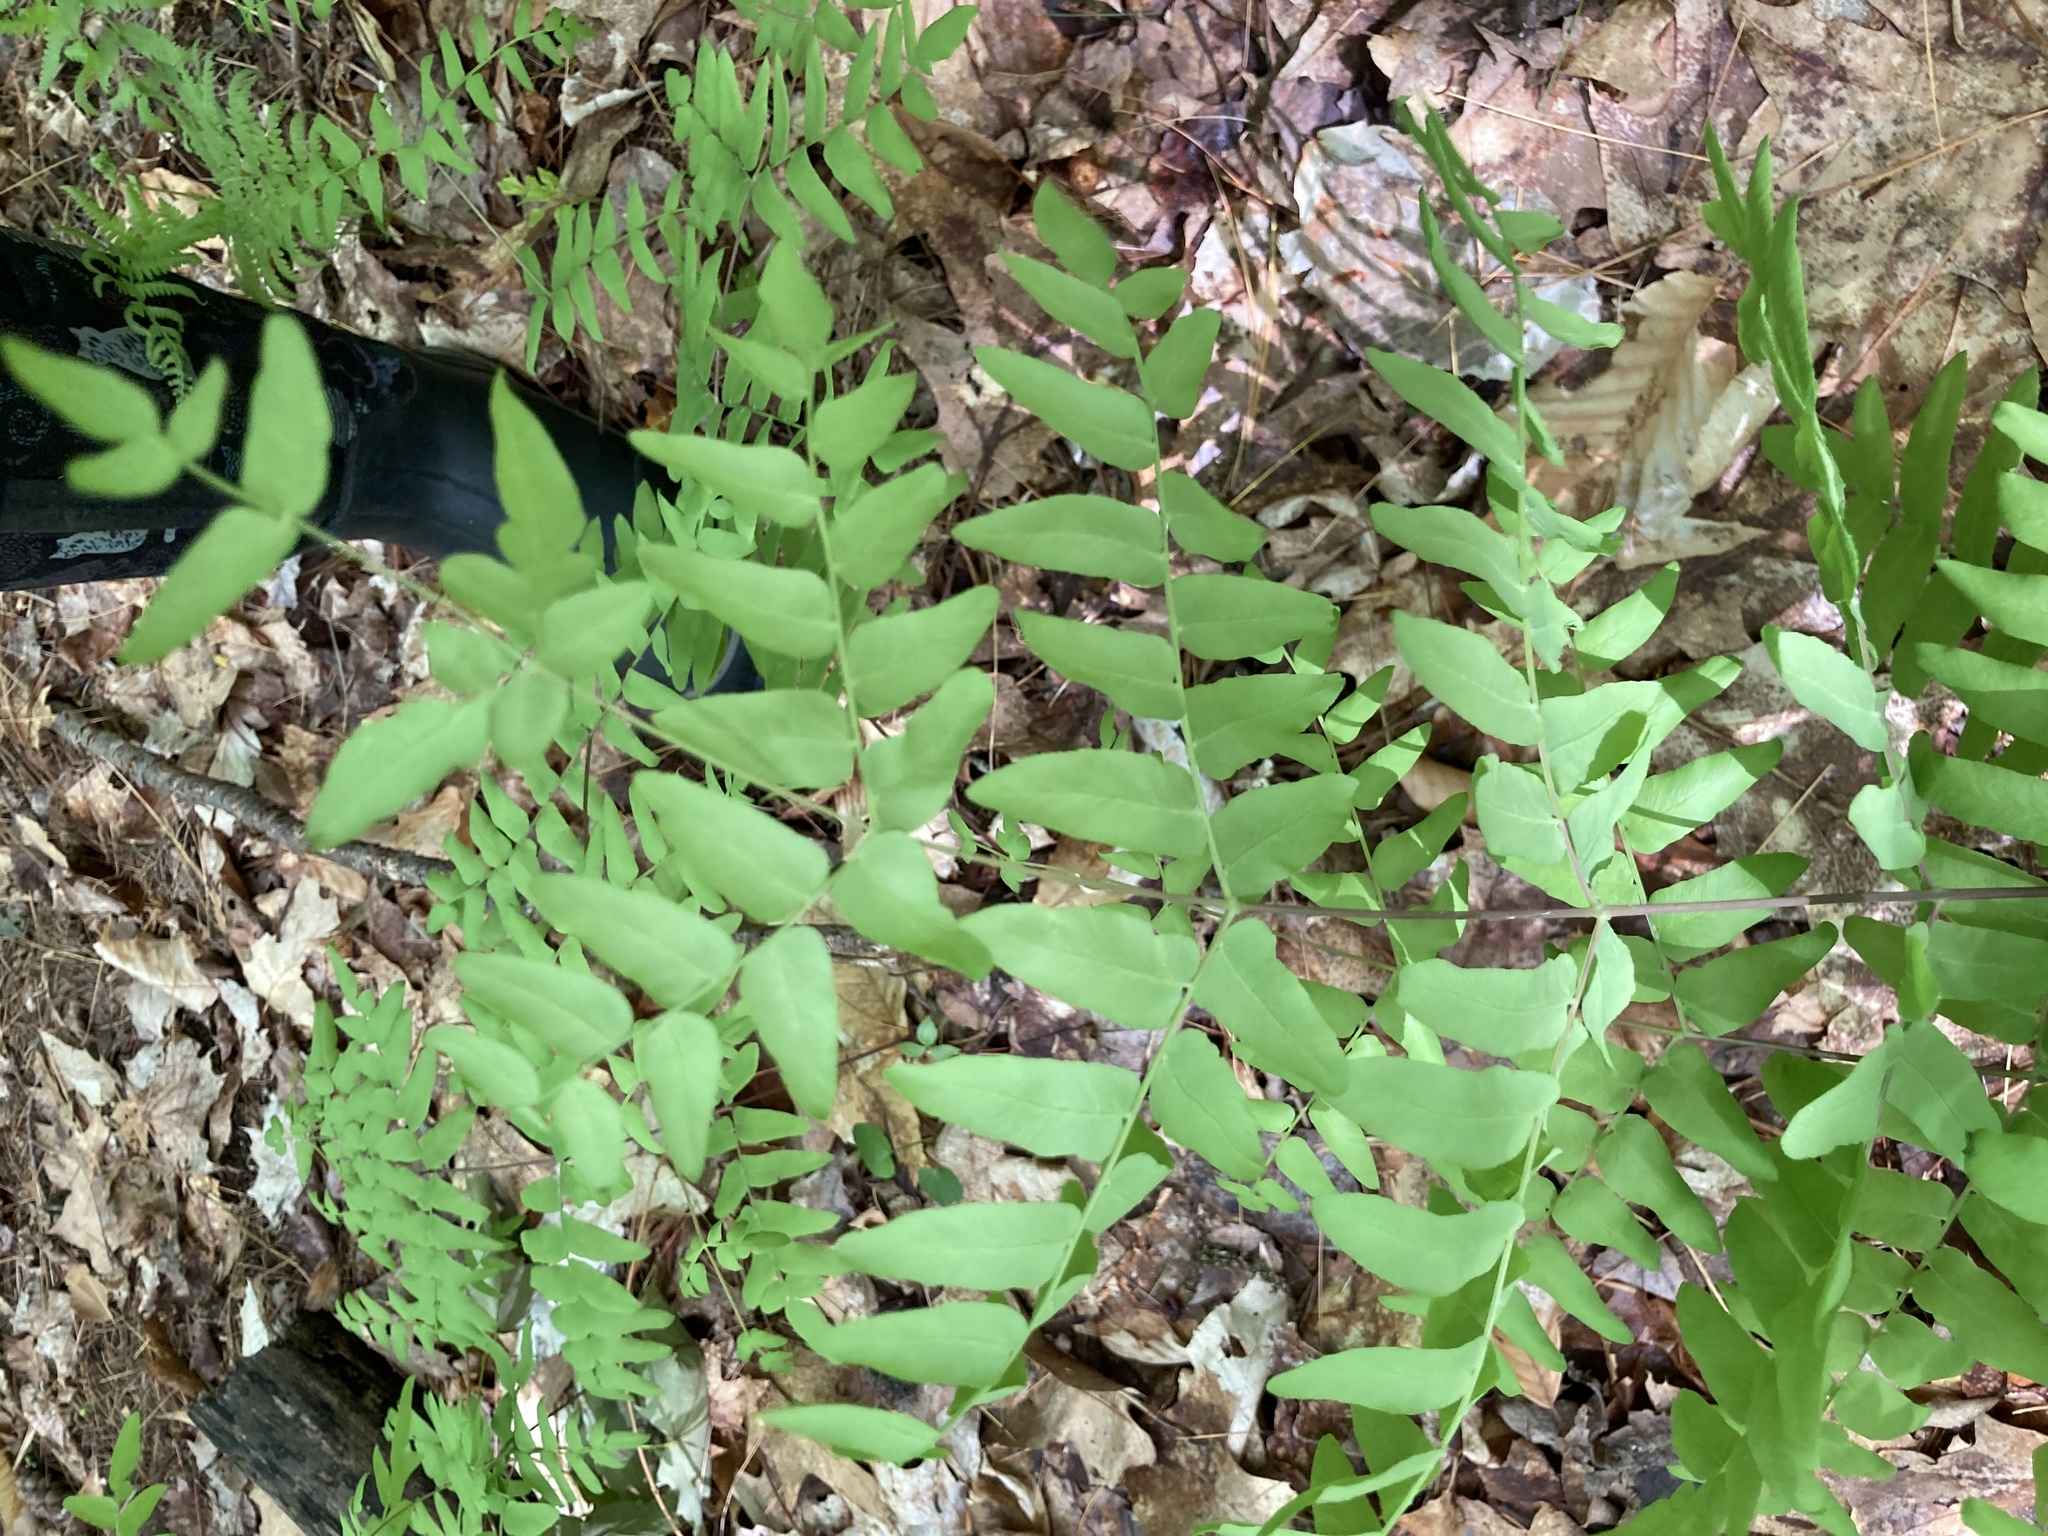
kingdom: Plantae
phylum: Tracheophyta
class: Polypodiopsida
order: Osmundales
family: Osmundaceae
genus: Osmunda
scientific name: Osmunda spectabilis
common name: American royal fern
